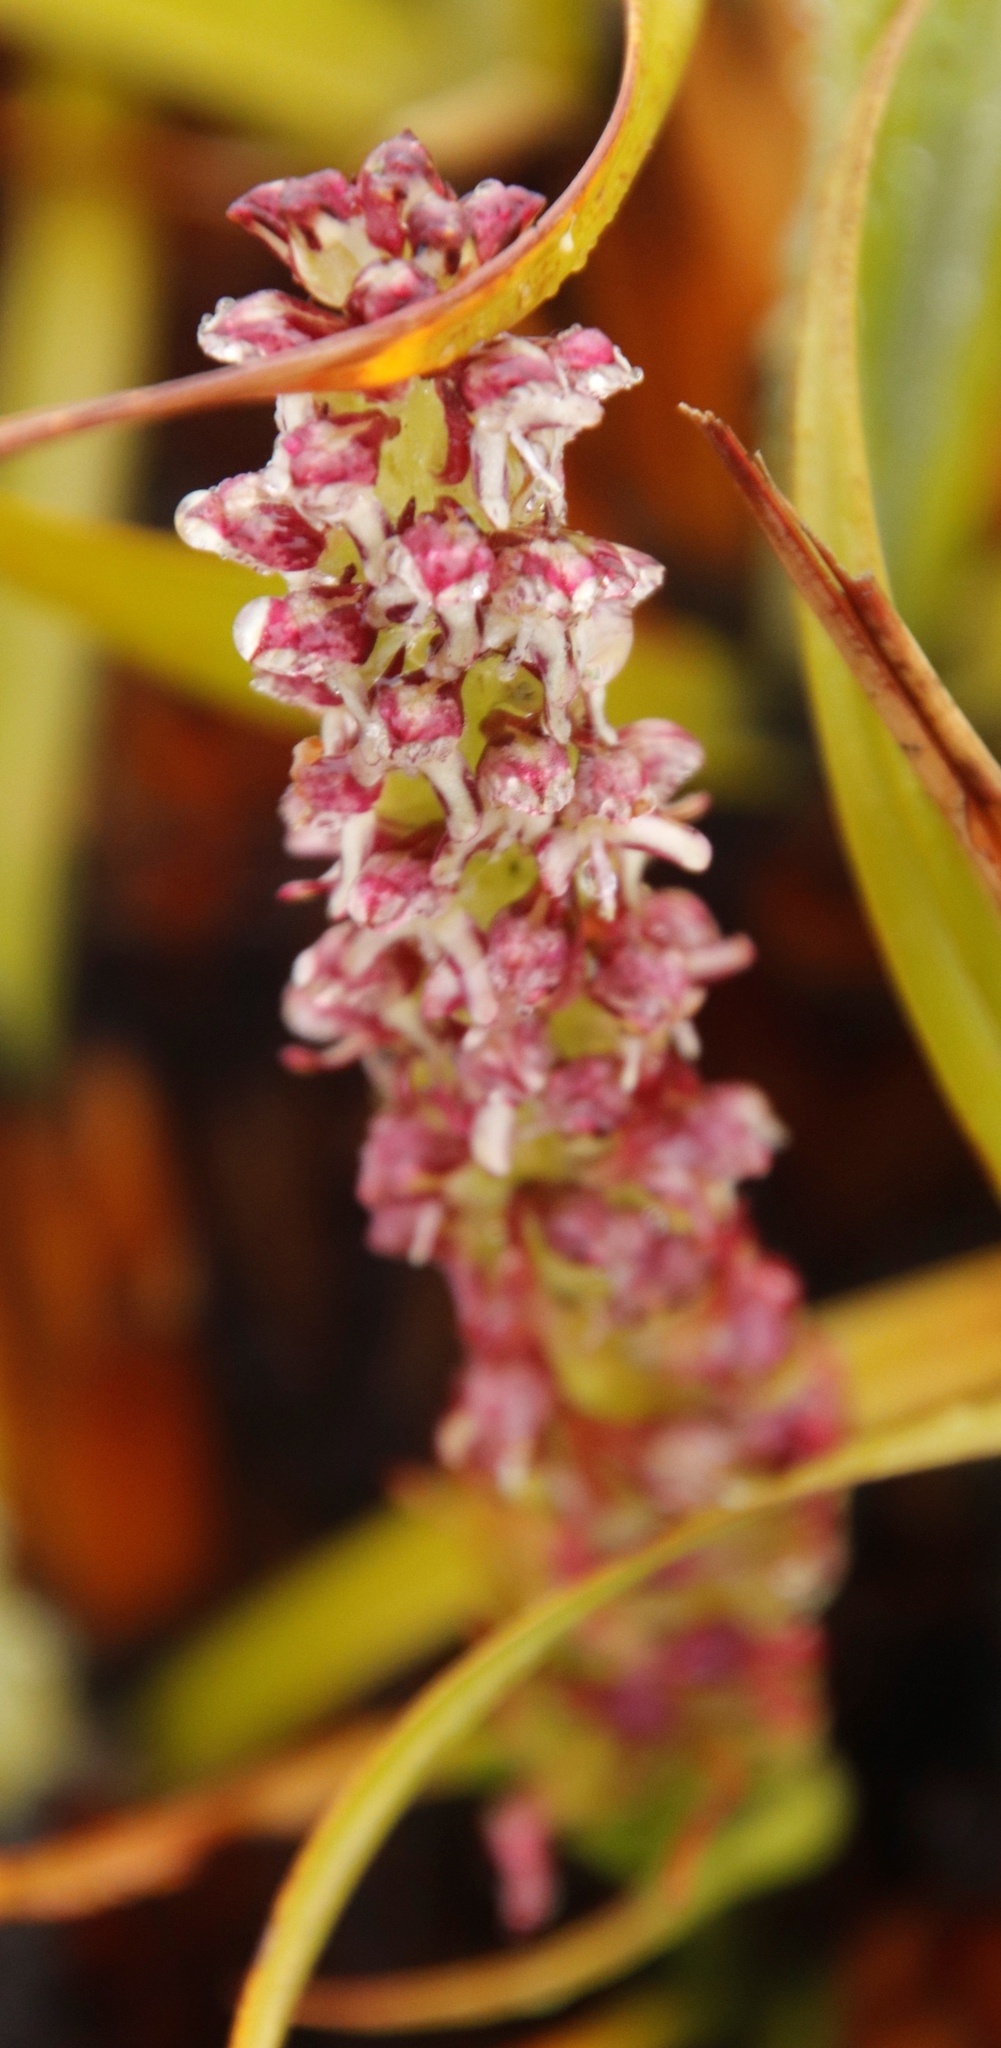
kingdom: Plantae
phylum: Tracheophyta
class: Liliopsida
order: Asparagales
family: Orchidaceae
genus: Disa
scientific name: Disa obtusa
